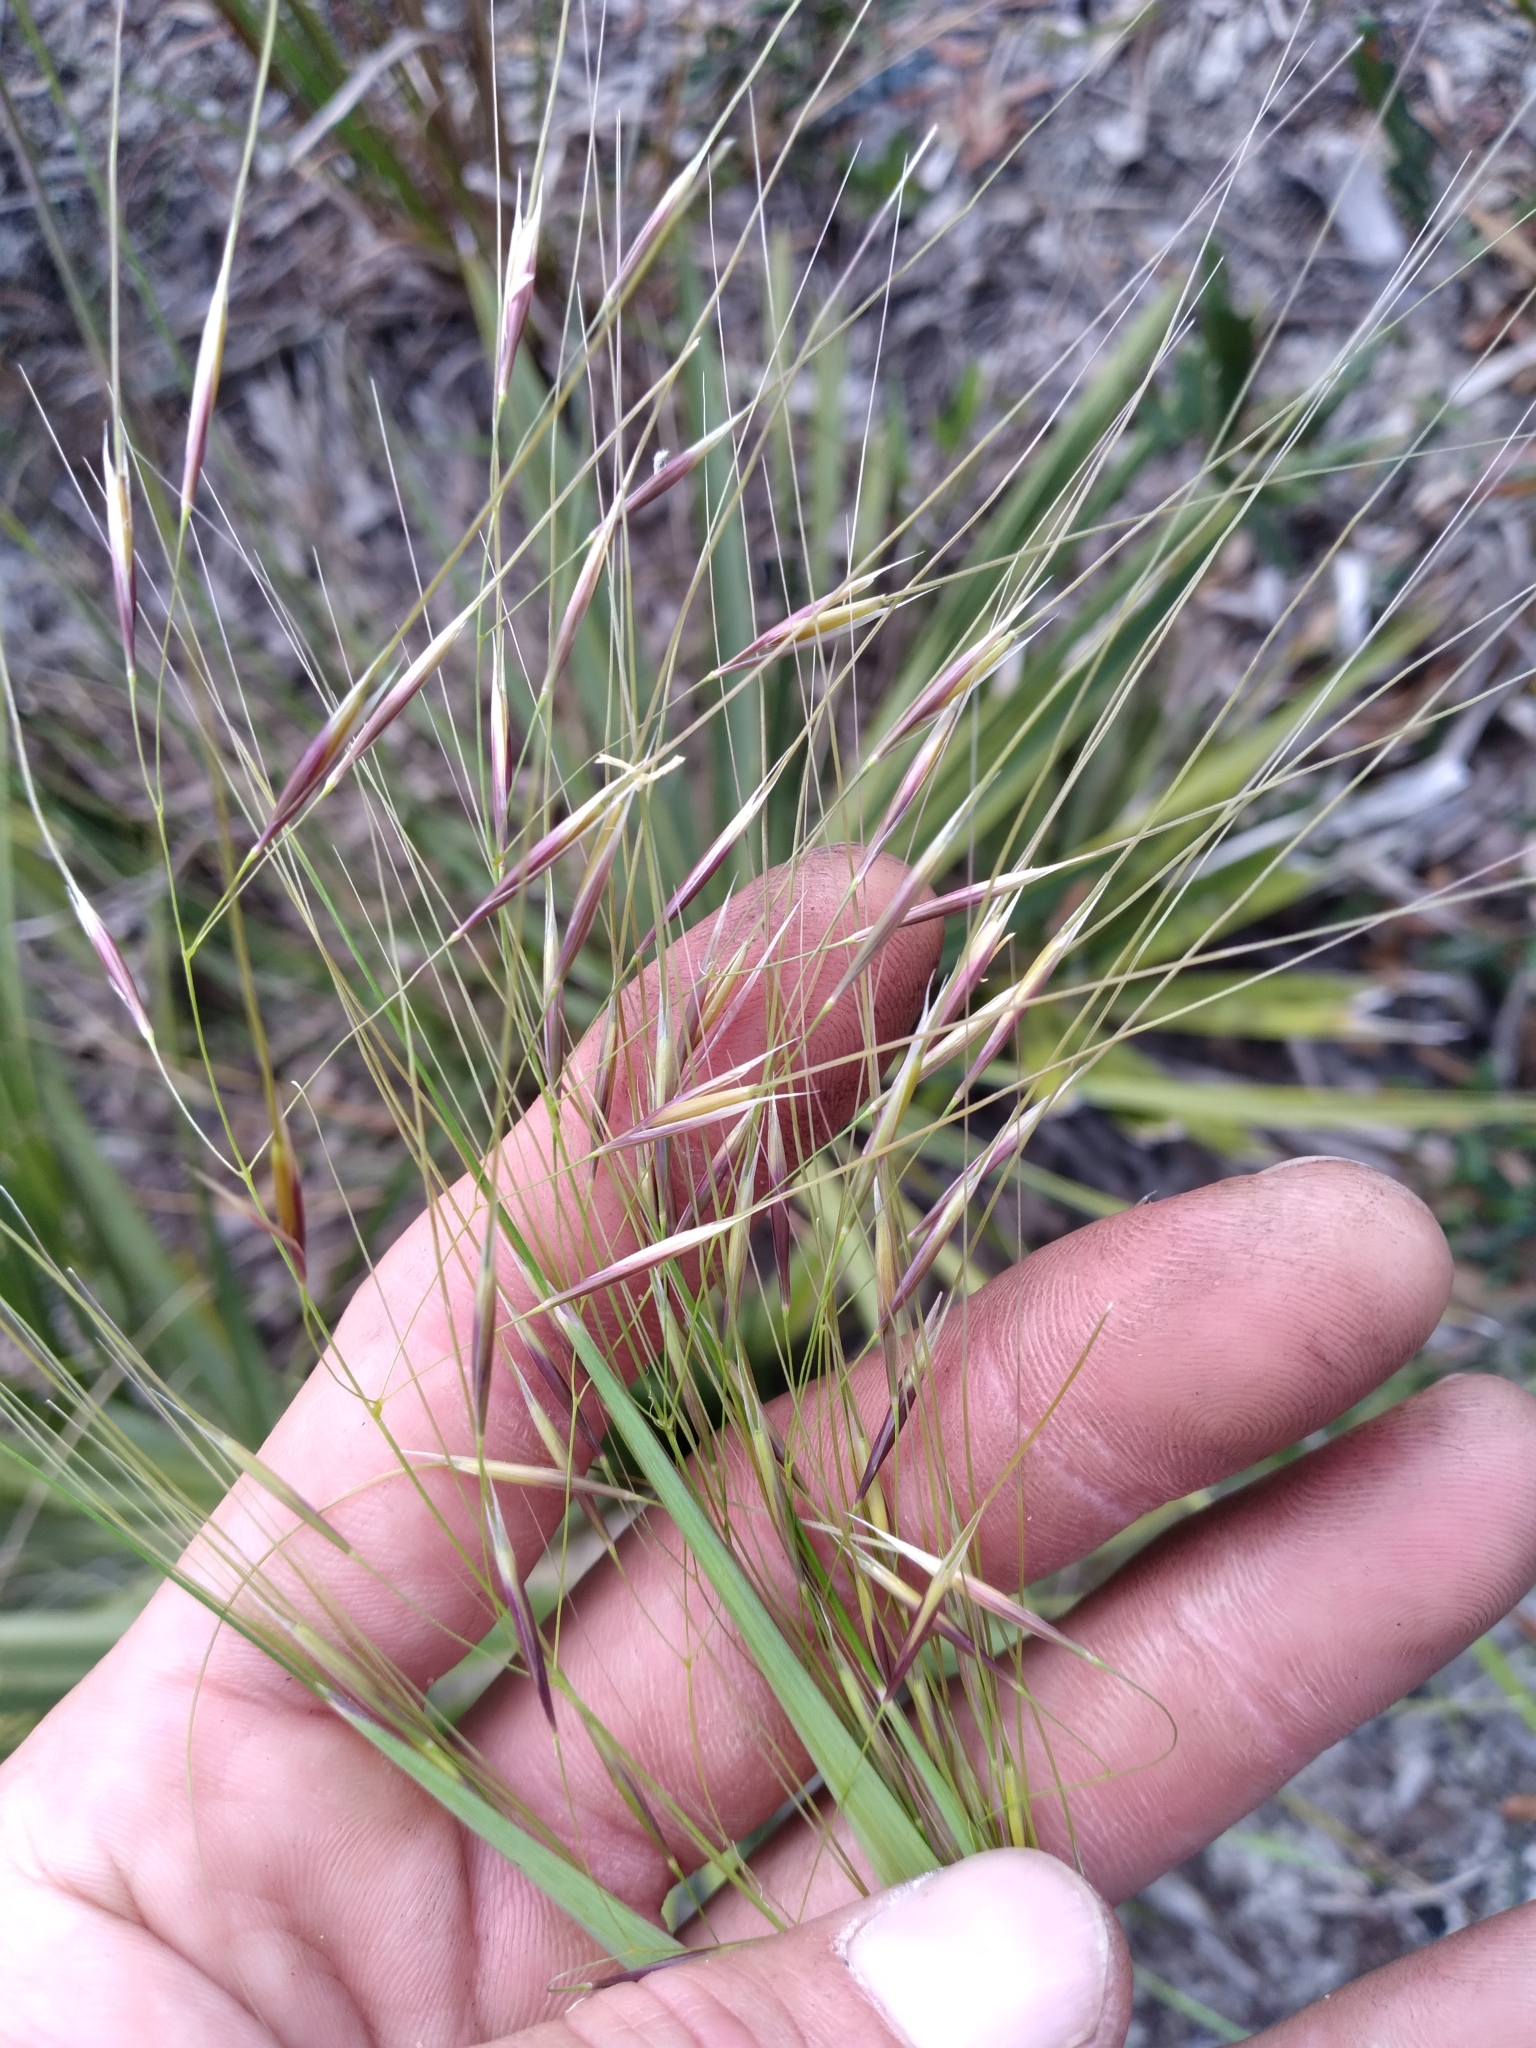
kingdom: Plantae
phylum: Tracheophyta
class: Liliopsida
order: Poales
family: Poaceae
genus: Piptochaetium
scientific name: Piptochaetium avenacioides
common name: Florida needlegrass
